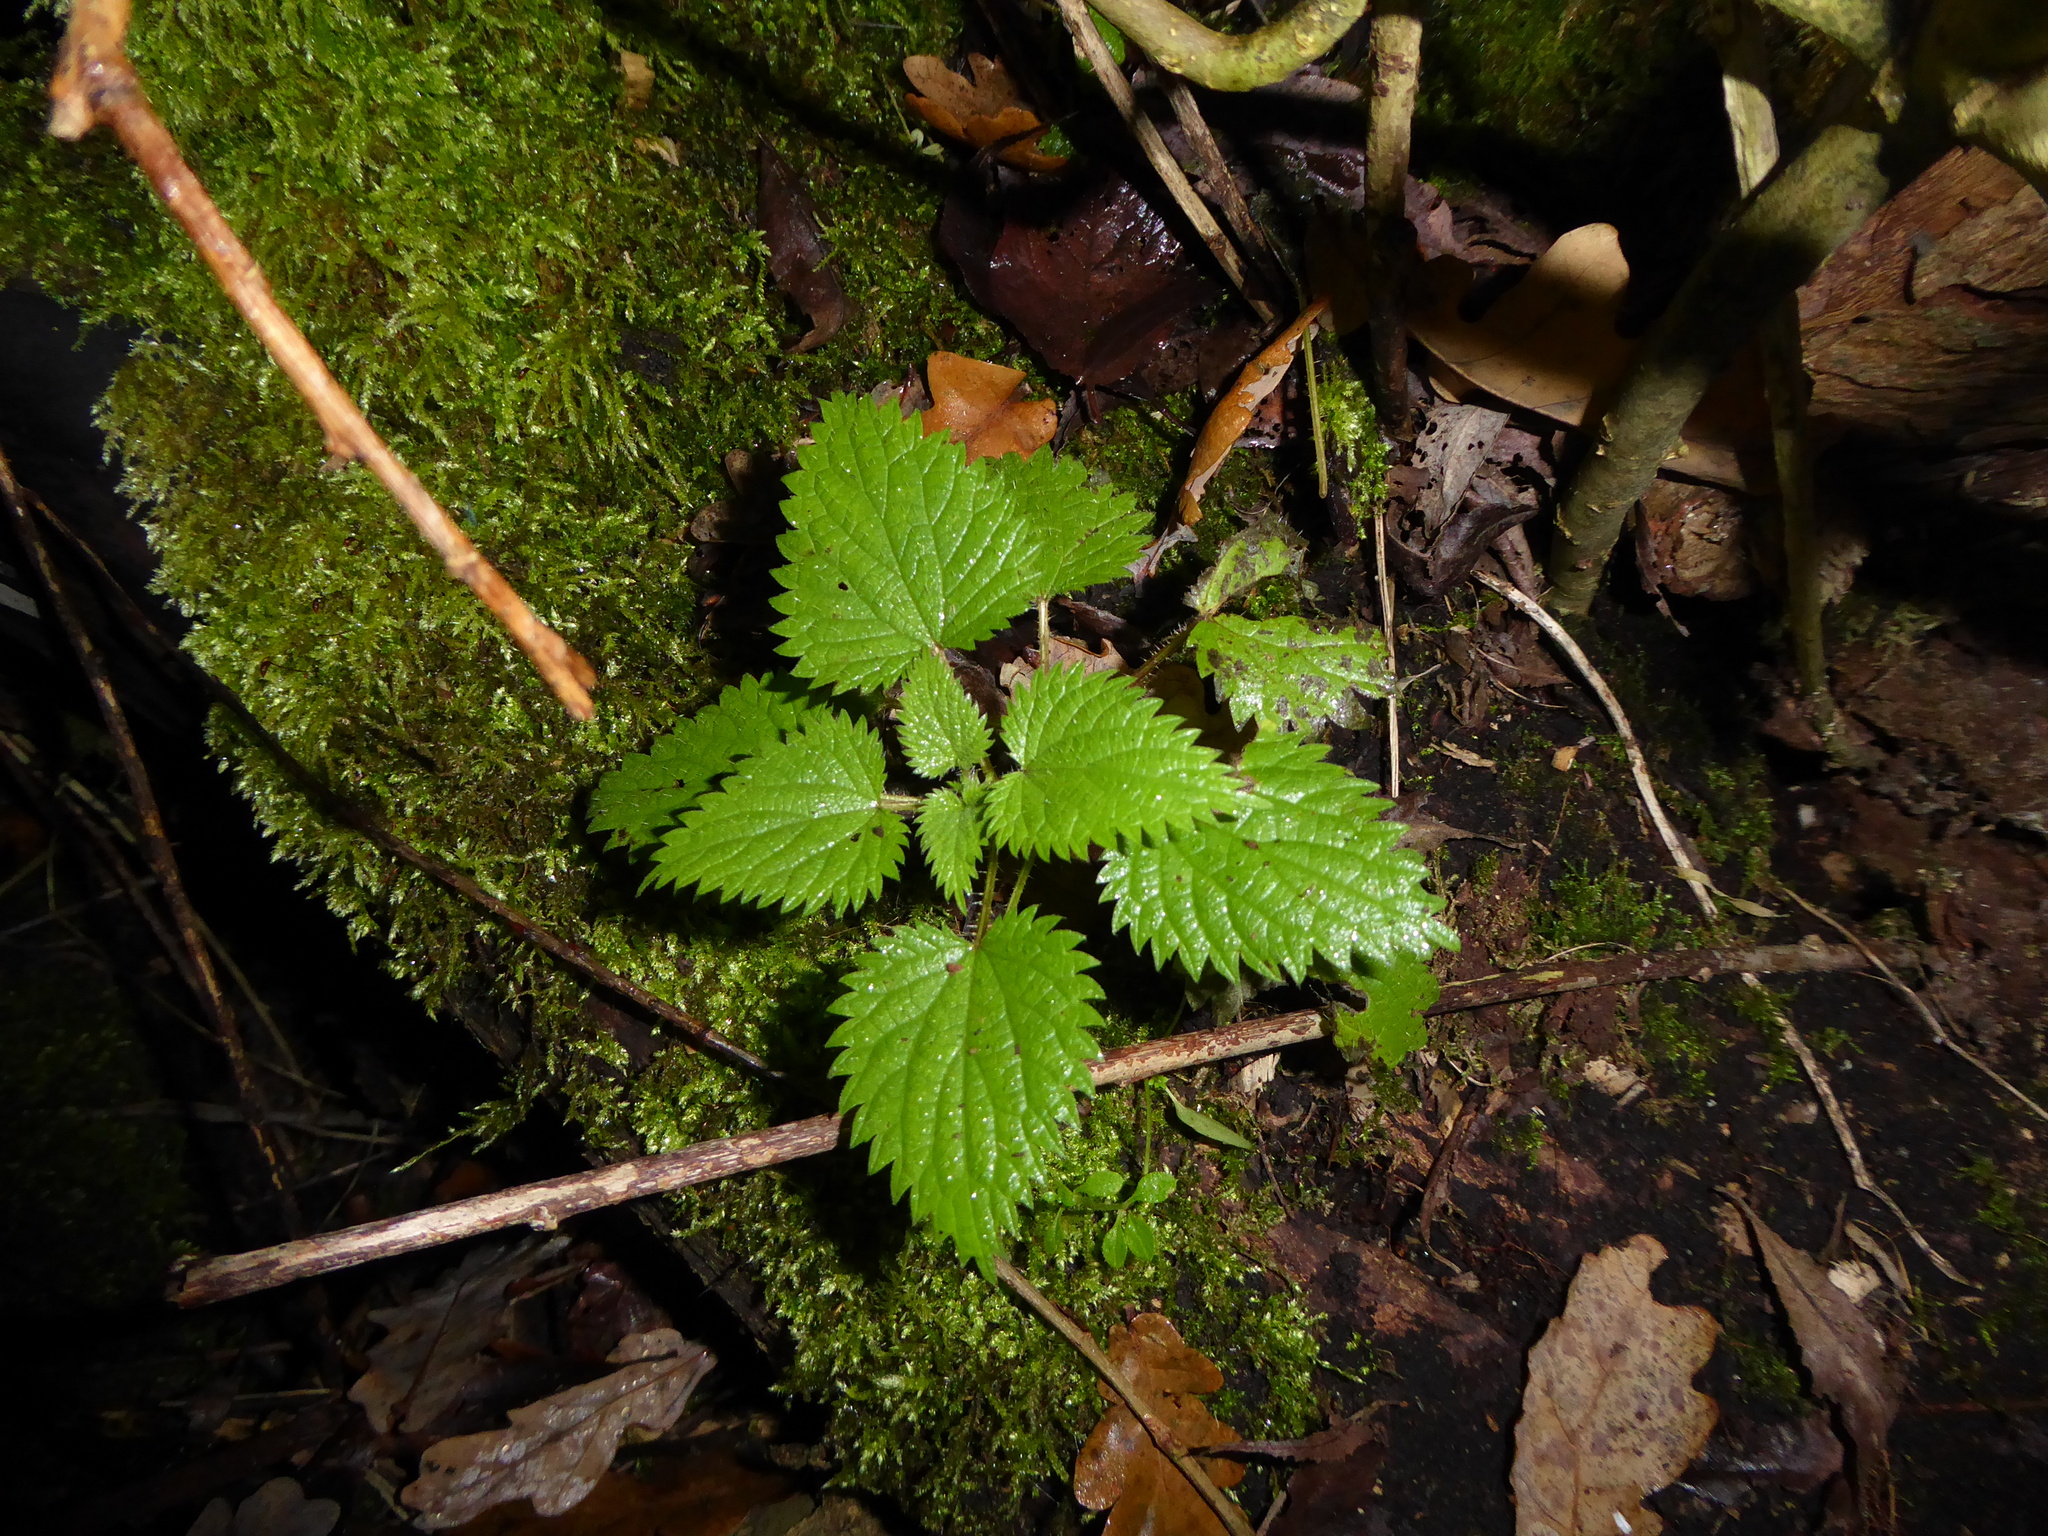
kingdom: Plantae
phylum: Tracheophyta
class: Magnoliopsida
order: Rosales
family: Urticaceae
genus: Urtica
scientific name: Urtica dioica
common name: Common nettle
